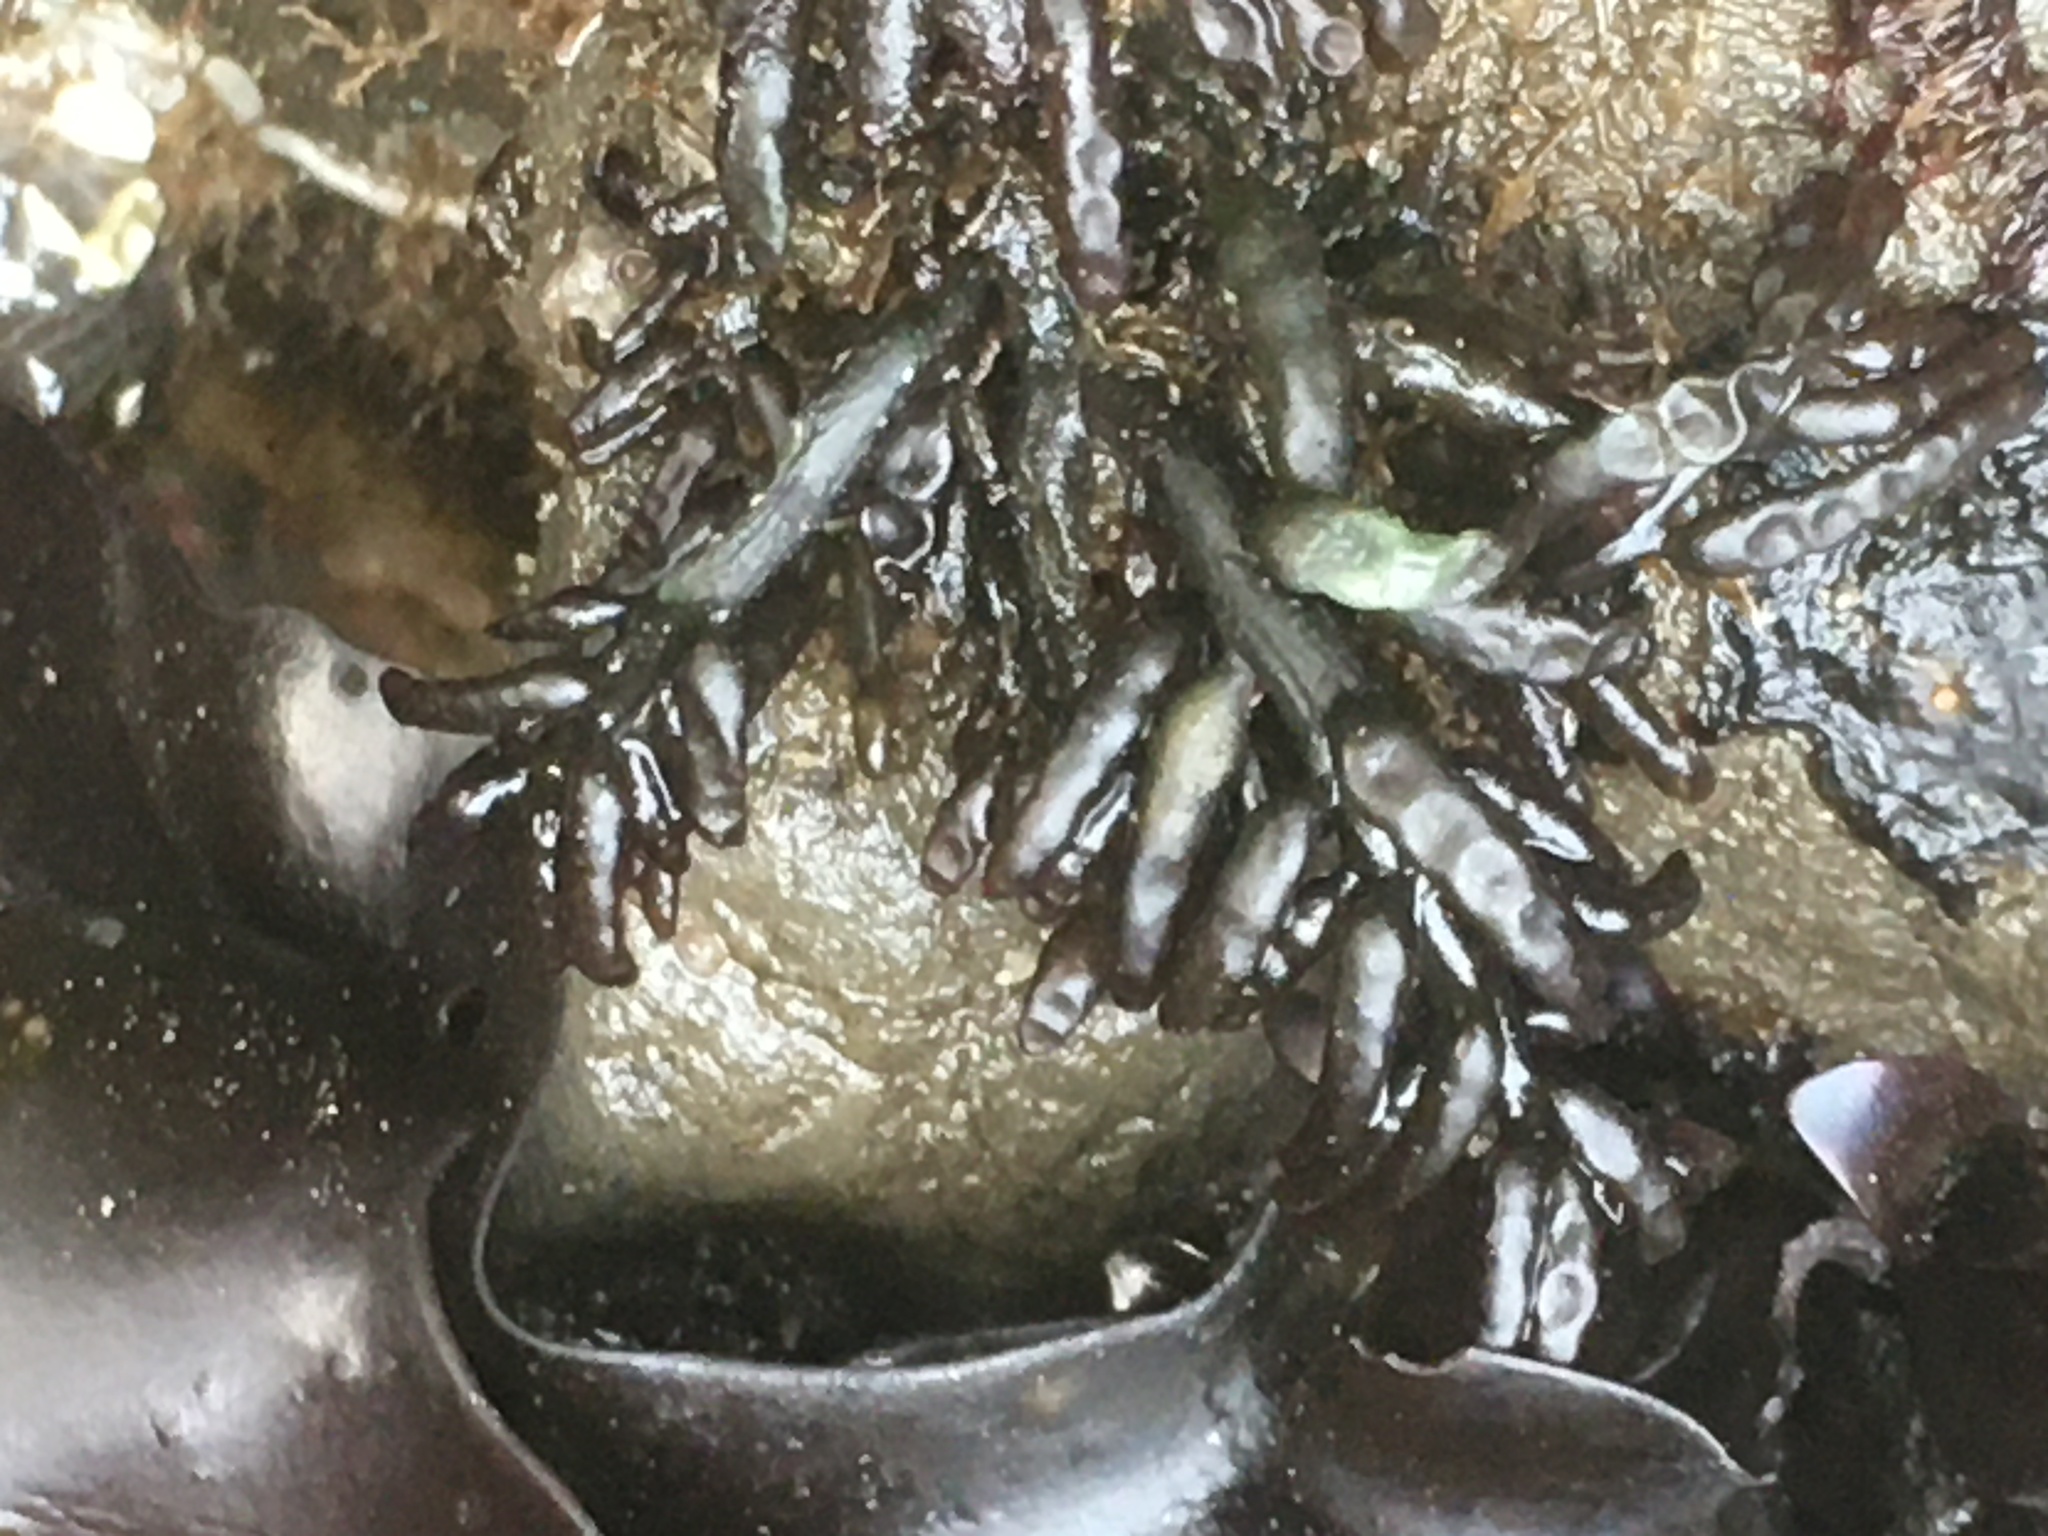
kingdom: Plantae
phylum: Rhodophyta
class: Florideophyceae
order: Rhodymeniales
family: Champiaceae
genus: Neogastroclonium
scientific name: Neogastroclonium subarticulatum
